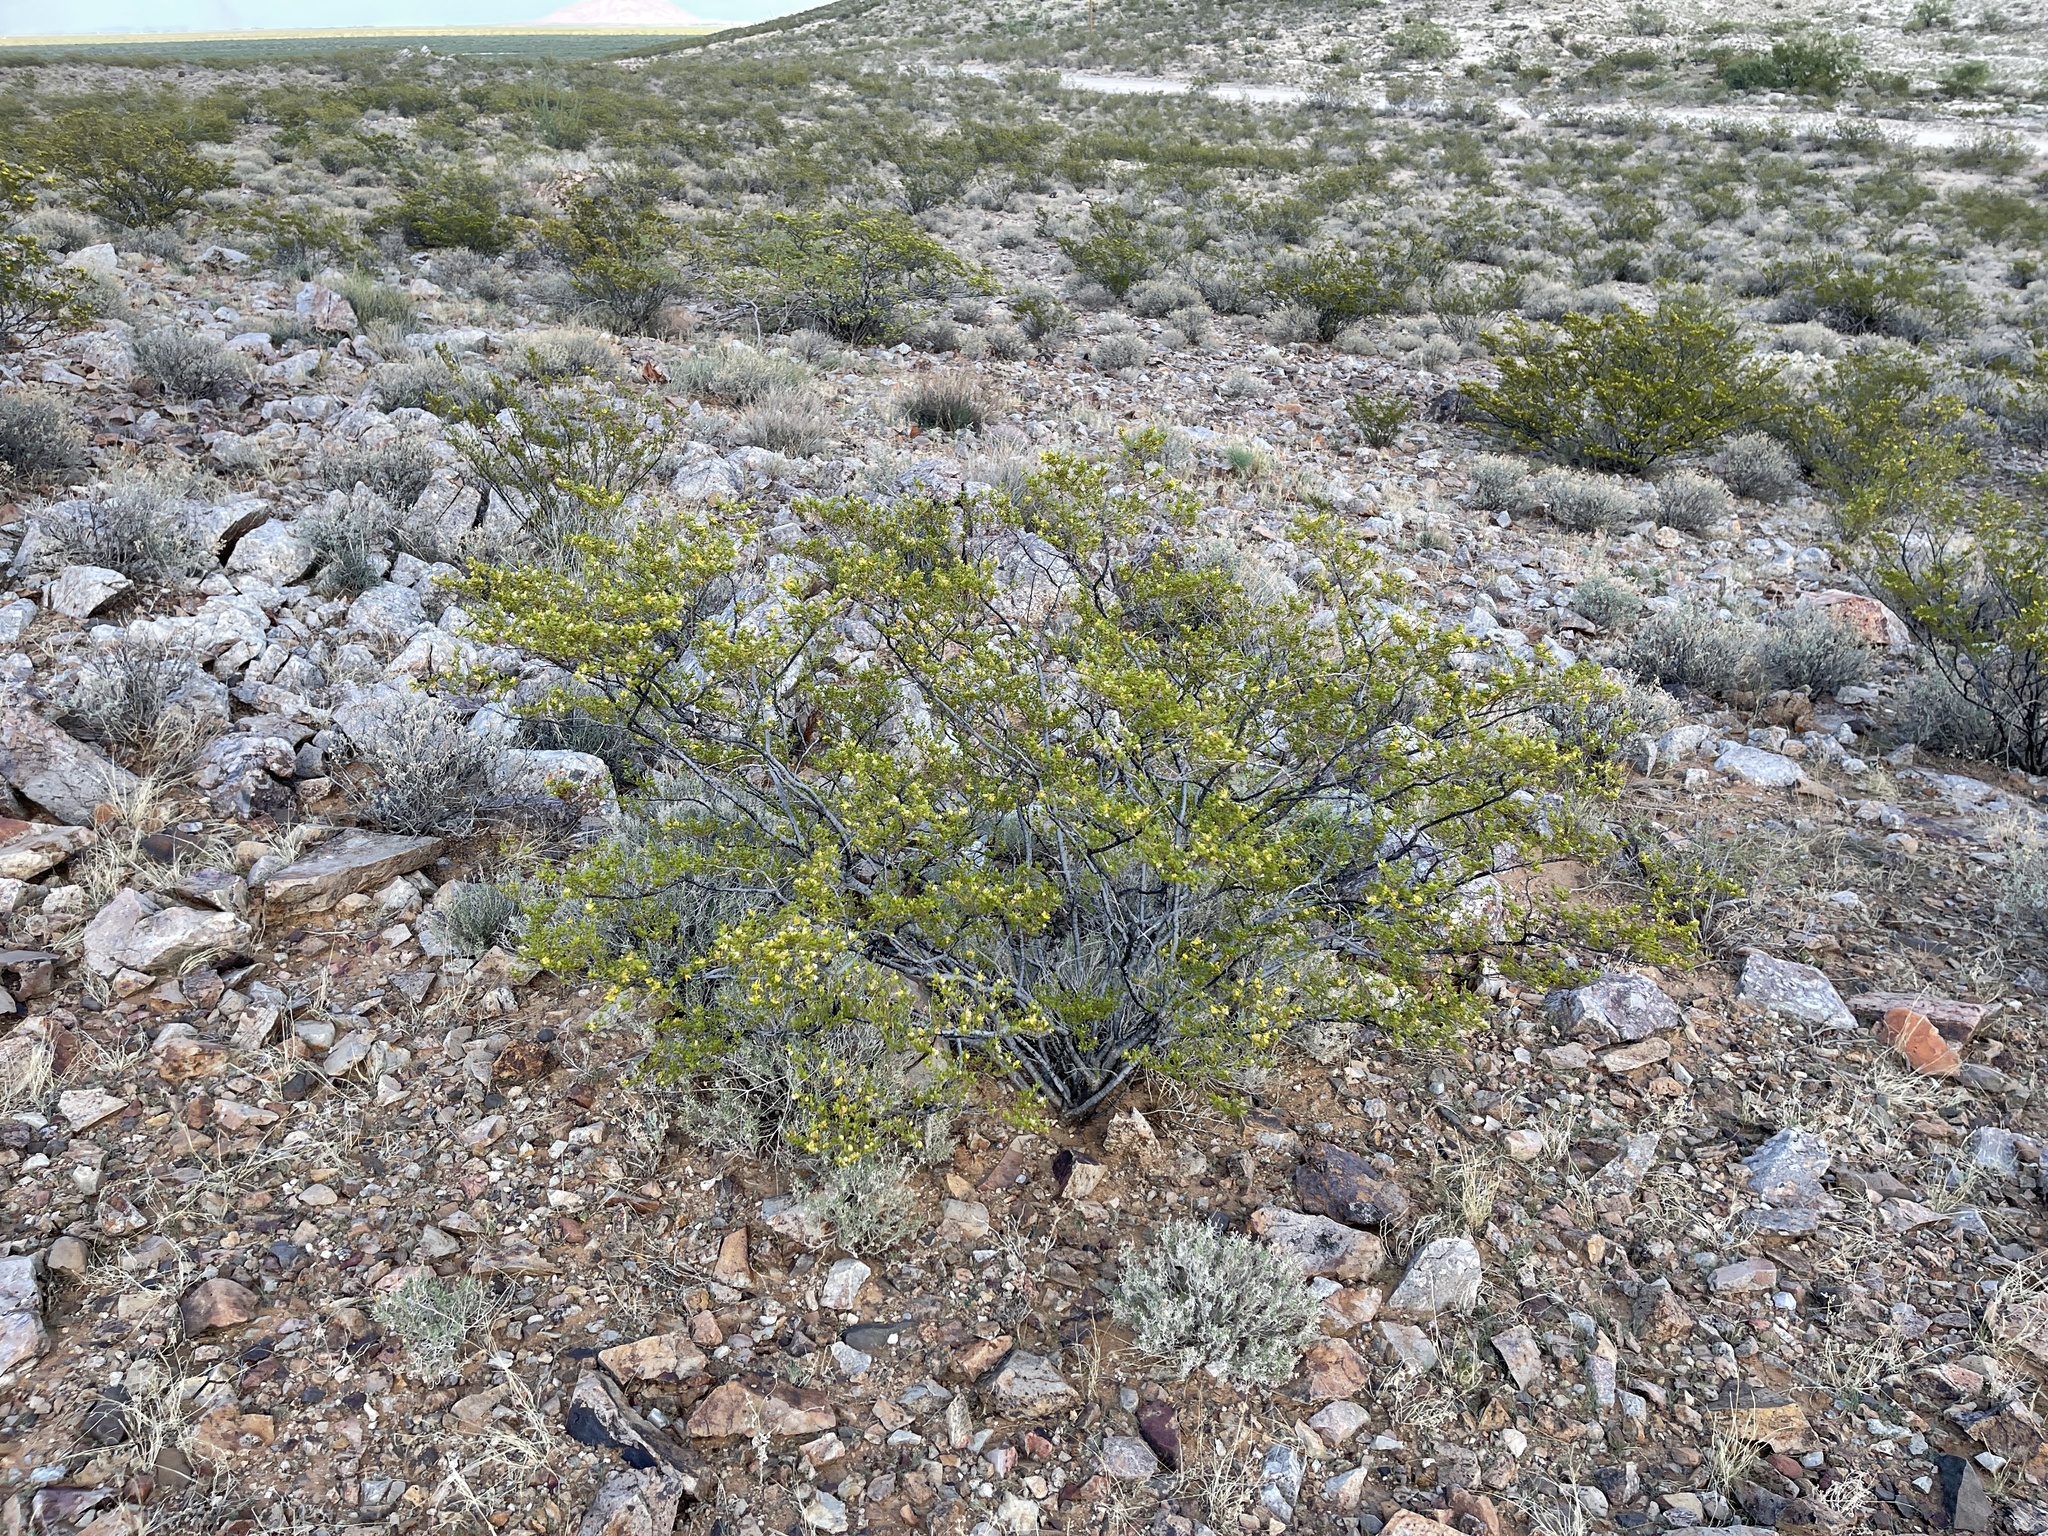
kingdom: Plantae
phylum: Tracheophyta
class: Magnoliopsida
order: Zygophyllales
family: Zygophyllaceae
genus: Larrea
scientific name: Larrea tridentata
